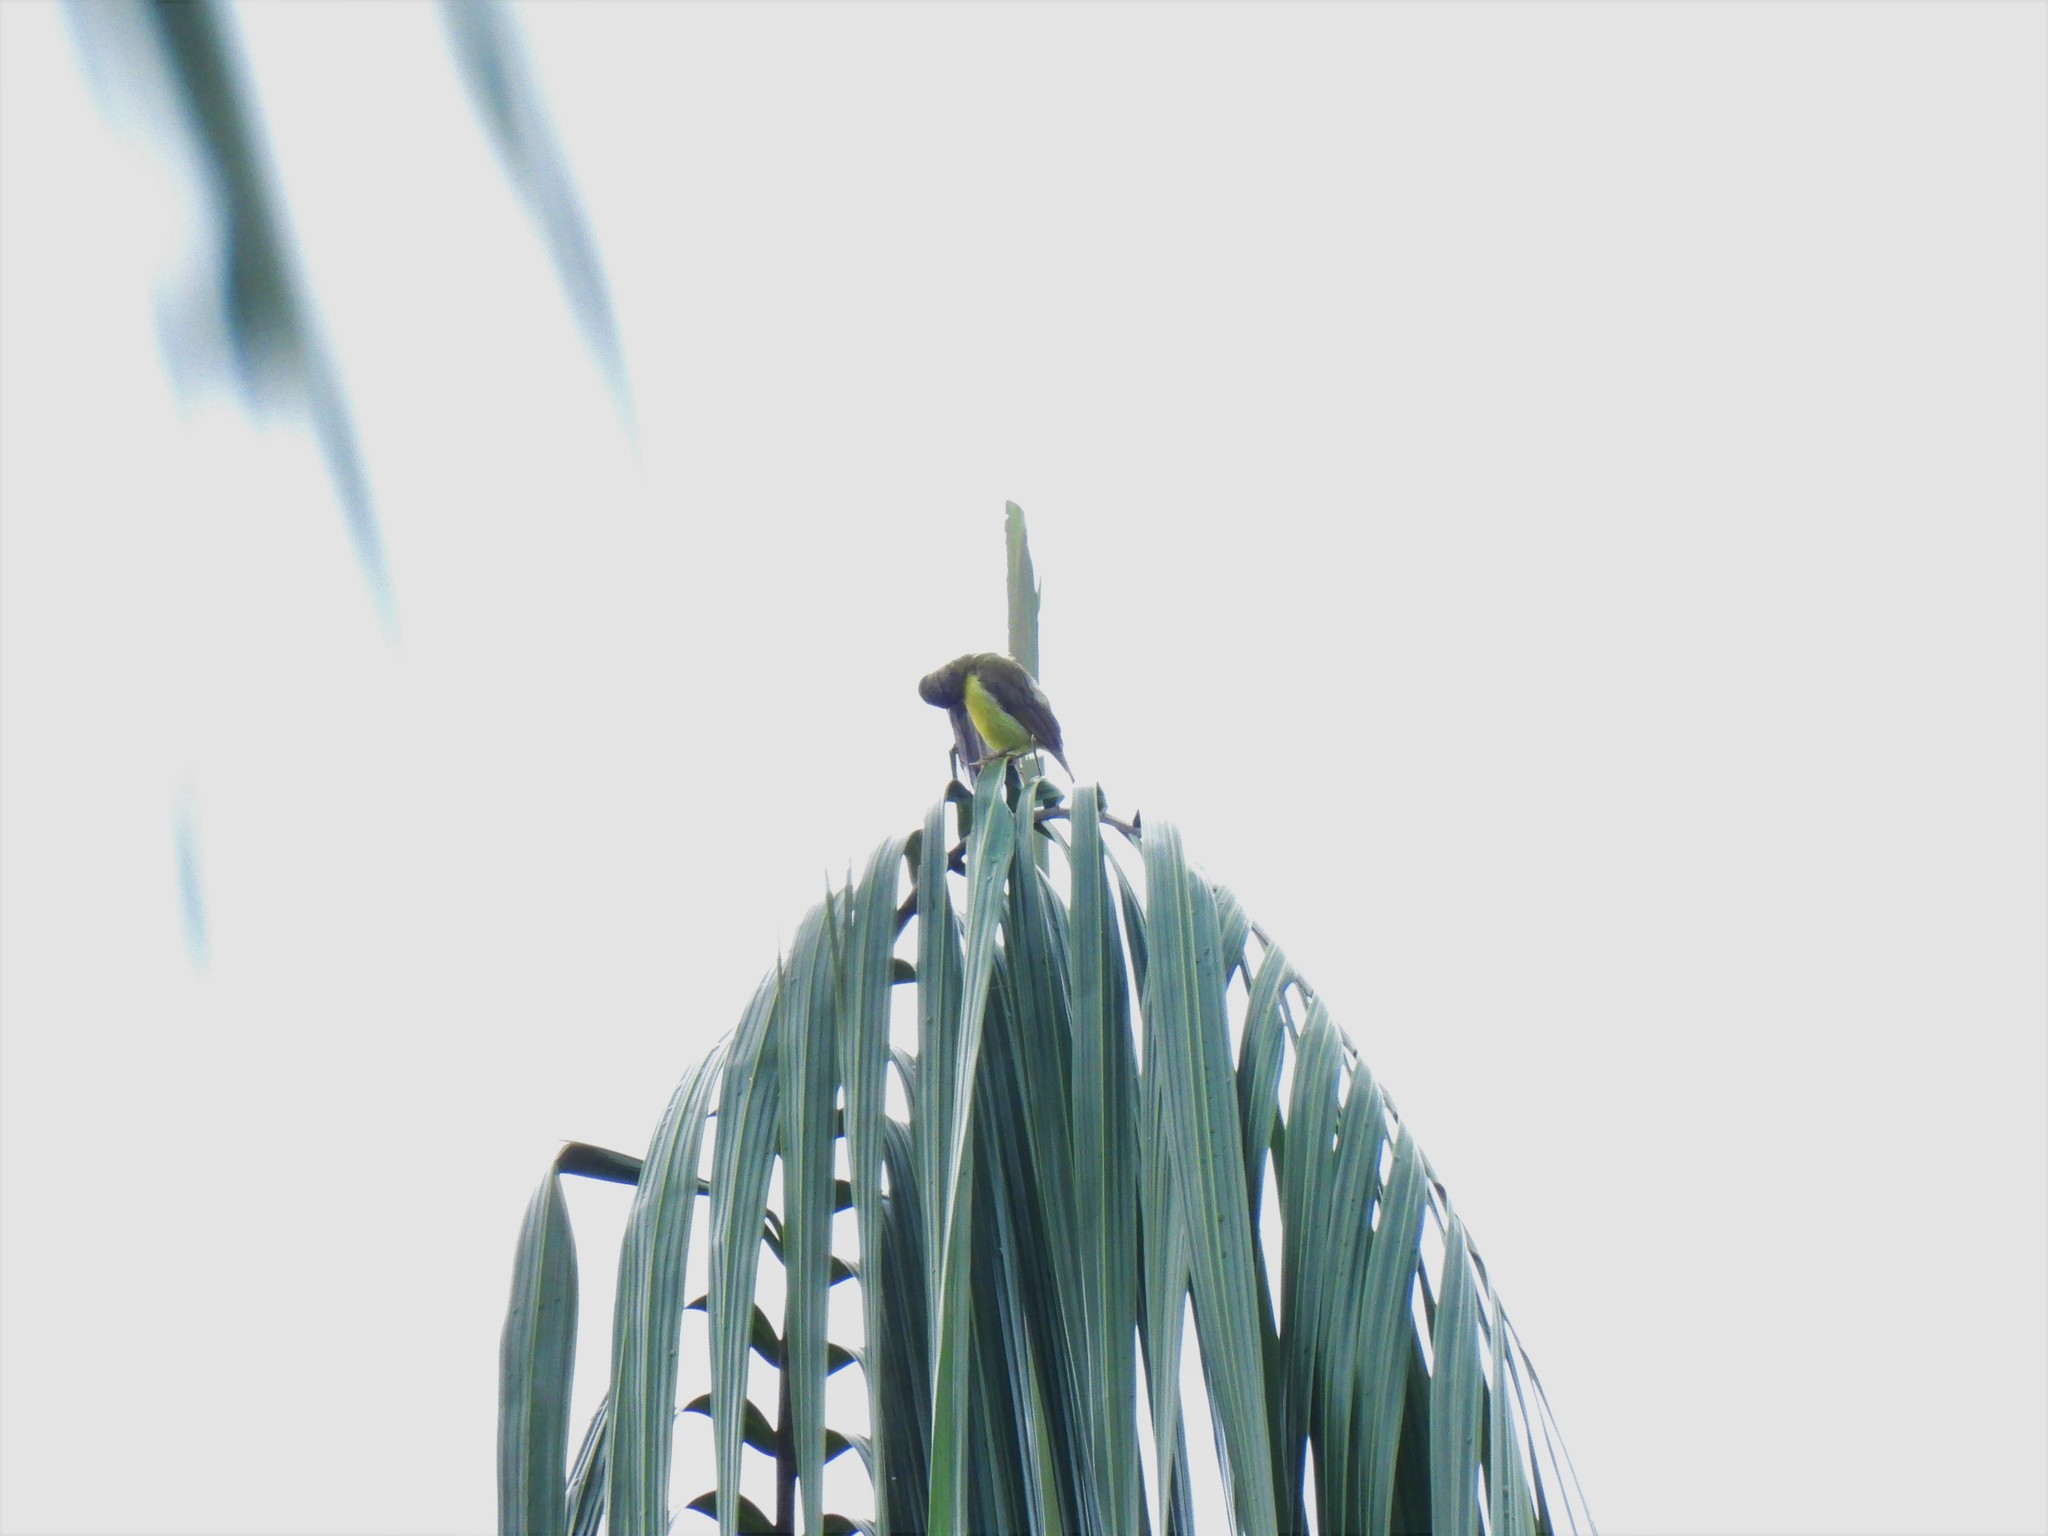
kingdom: Animalia
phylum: Chordata
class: Aves
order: Passeriformes
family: Nectariniidae
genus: Cinnyris
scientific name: Cinnyris
